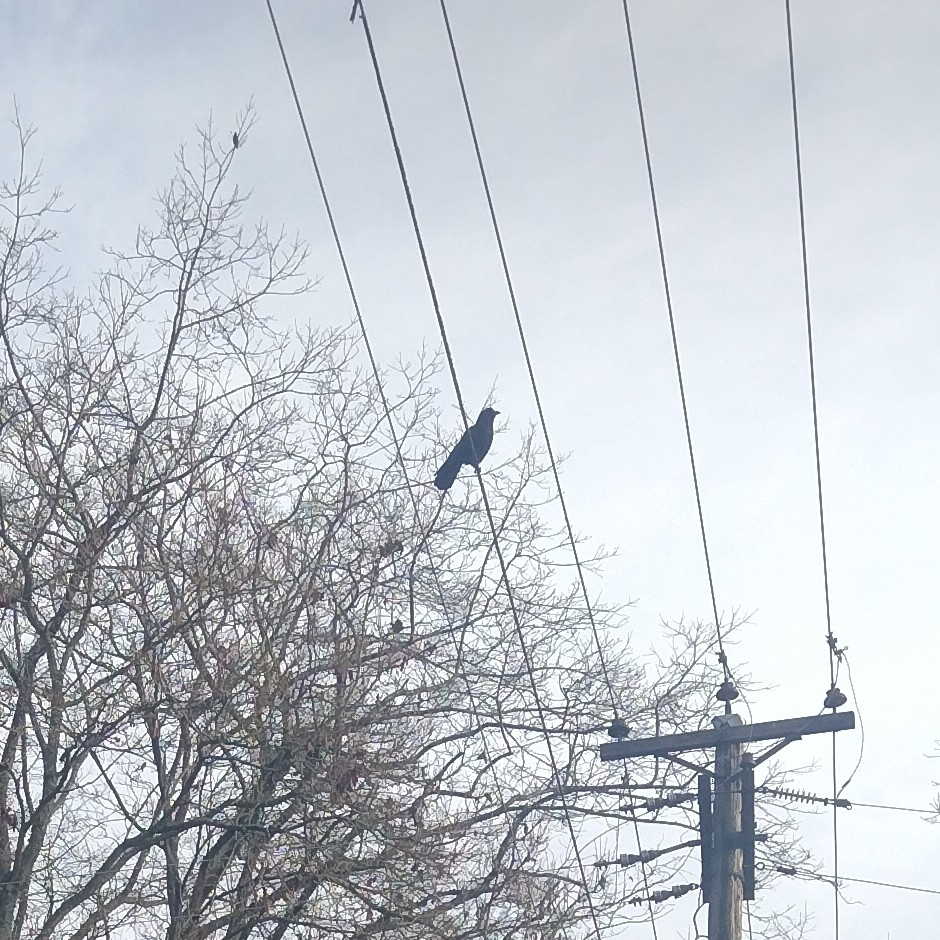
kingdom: Animalia
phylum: Chordata
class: Aves
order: Passeriformes
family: Corvidae
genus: Corvus
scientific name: Corvus brachyrhynchos
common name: American crow
